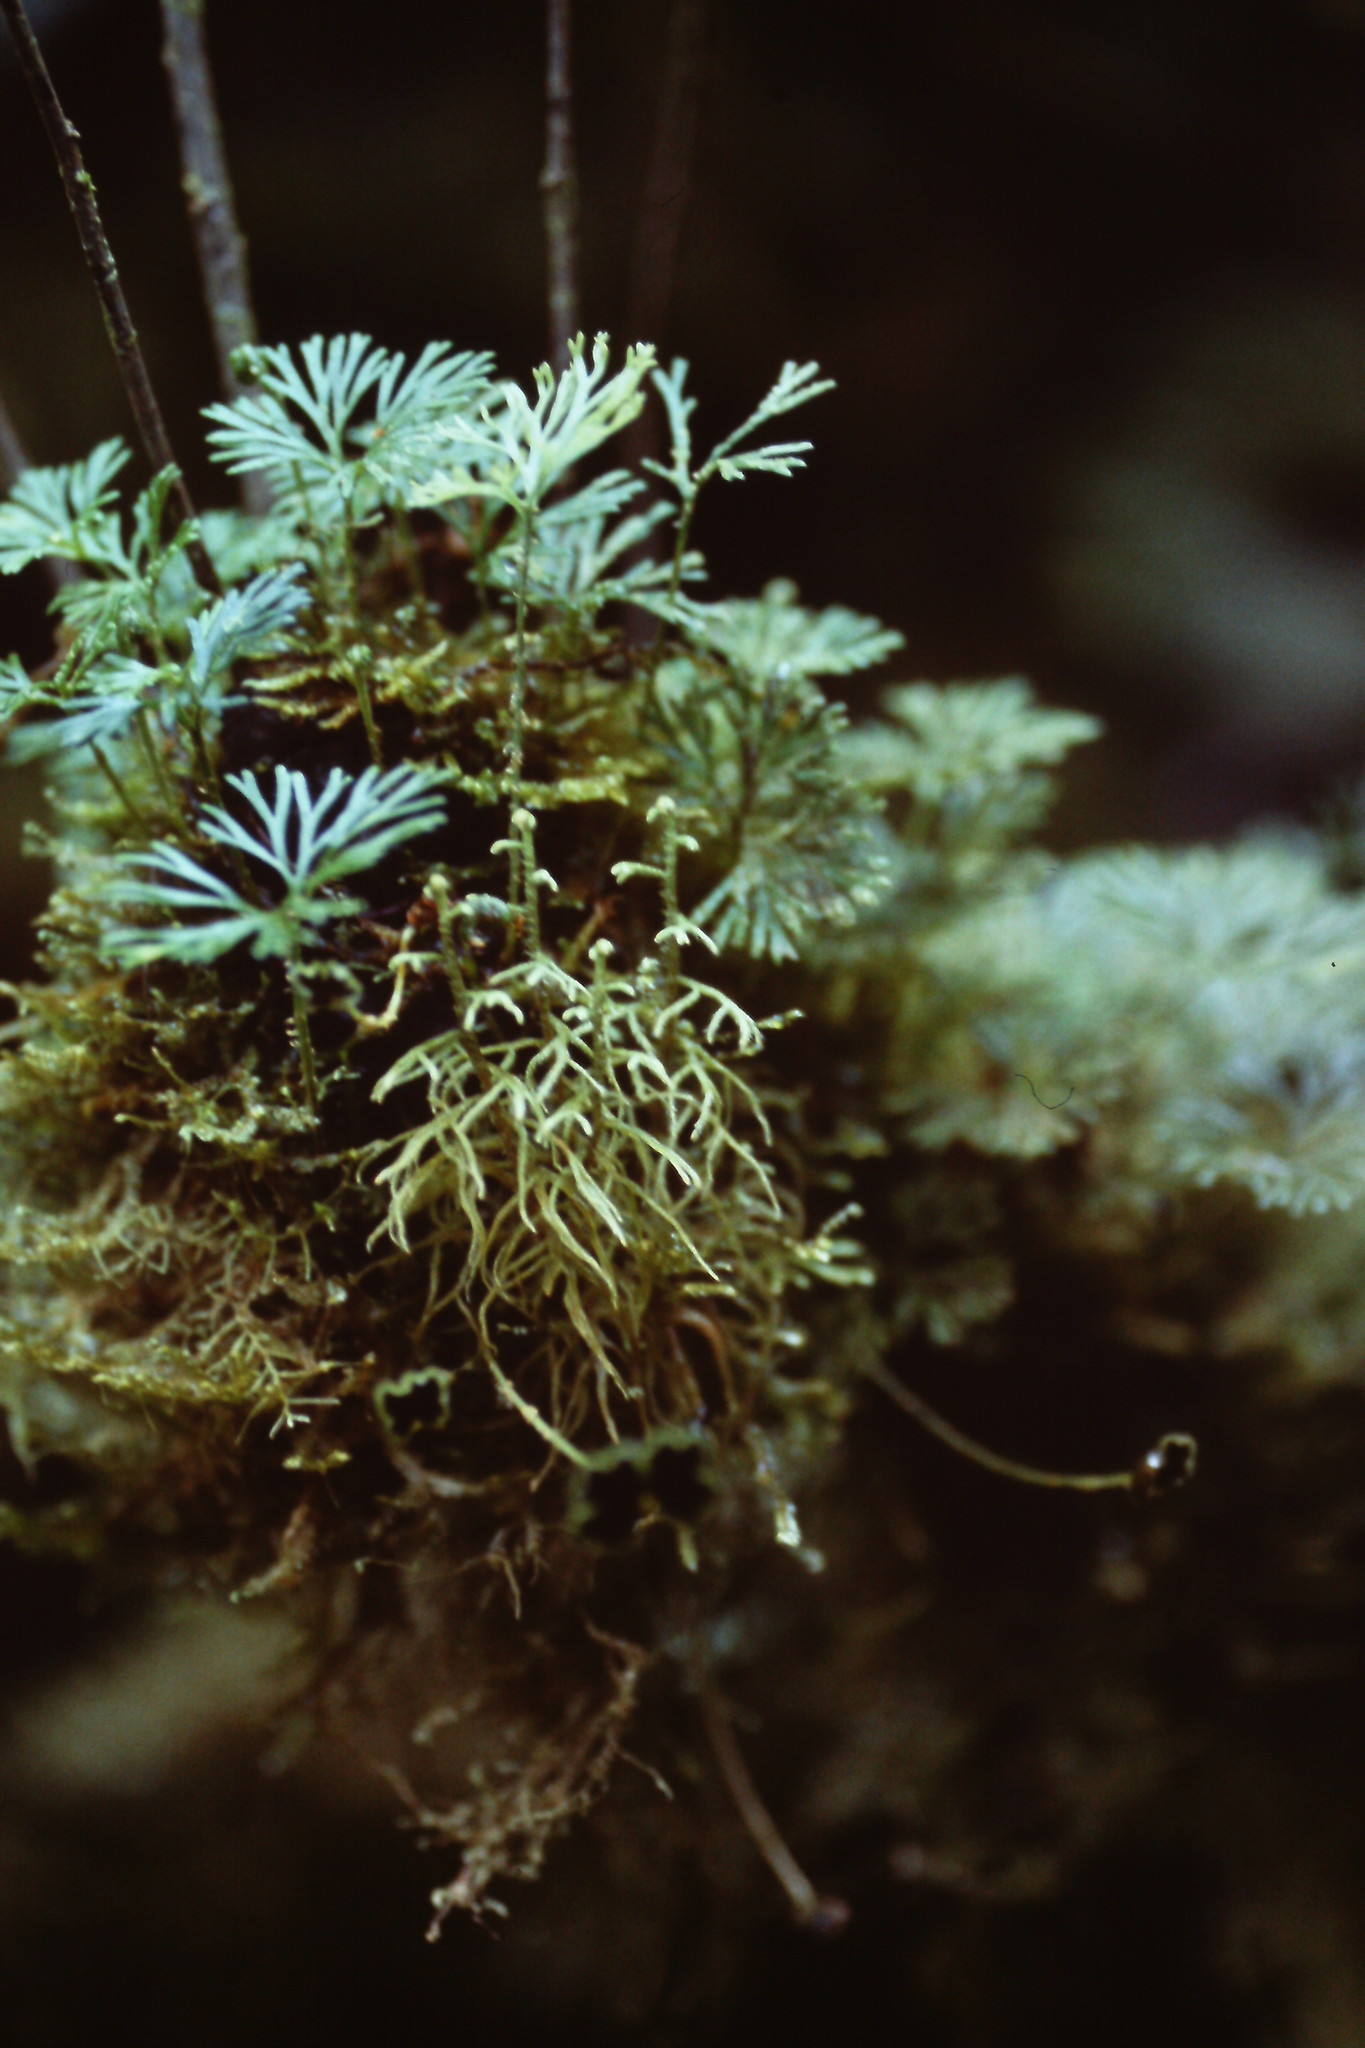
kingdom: Plantae
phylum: Tracheophyta
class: Polypodiopsida
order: Polypodiales
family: Dryopteridaceae
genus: Elaphoglossum
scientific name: Elaphoglossum peltatum
